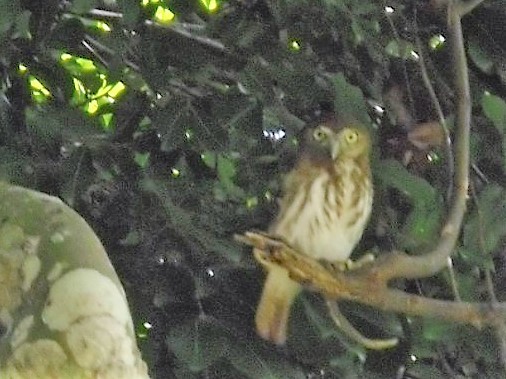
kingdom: Animalia
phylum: Chordata
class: Aves
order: Strigiformes
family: Strigidae
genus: Glaucidium
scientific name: Glaucidium brasilianum
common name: Ferruginous pygmy-owl
